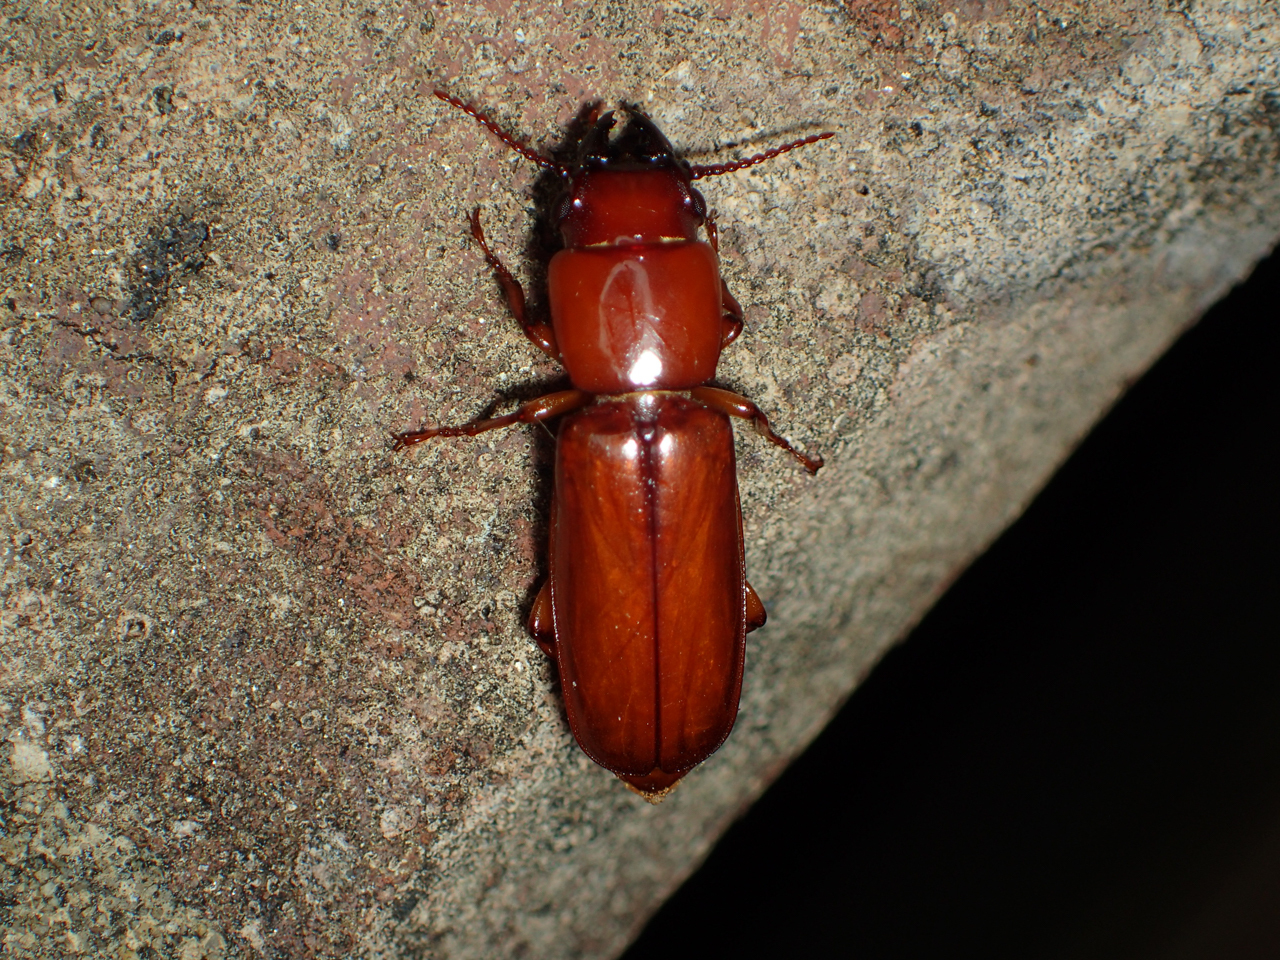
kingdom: Animalia
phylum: Arthropoda
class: Insecta
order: Coleoptera
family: Cerambycidae
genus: Neandra
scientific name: Neandra brunnea
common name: Pole borer
